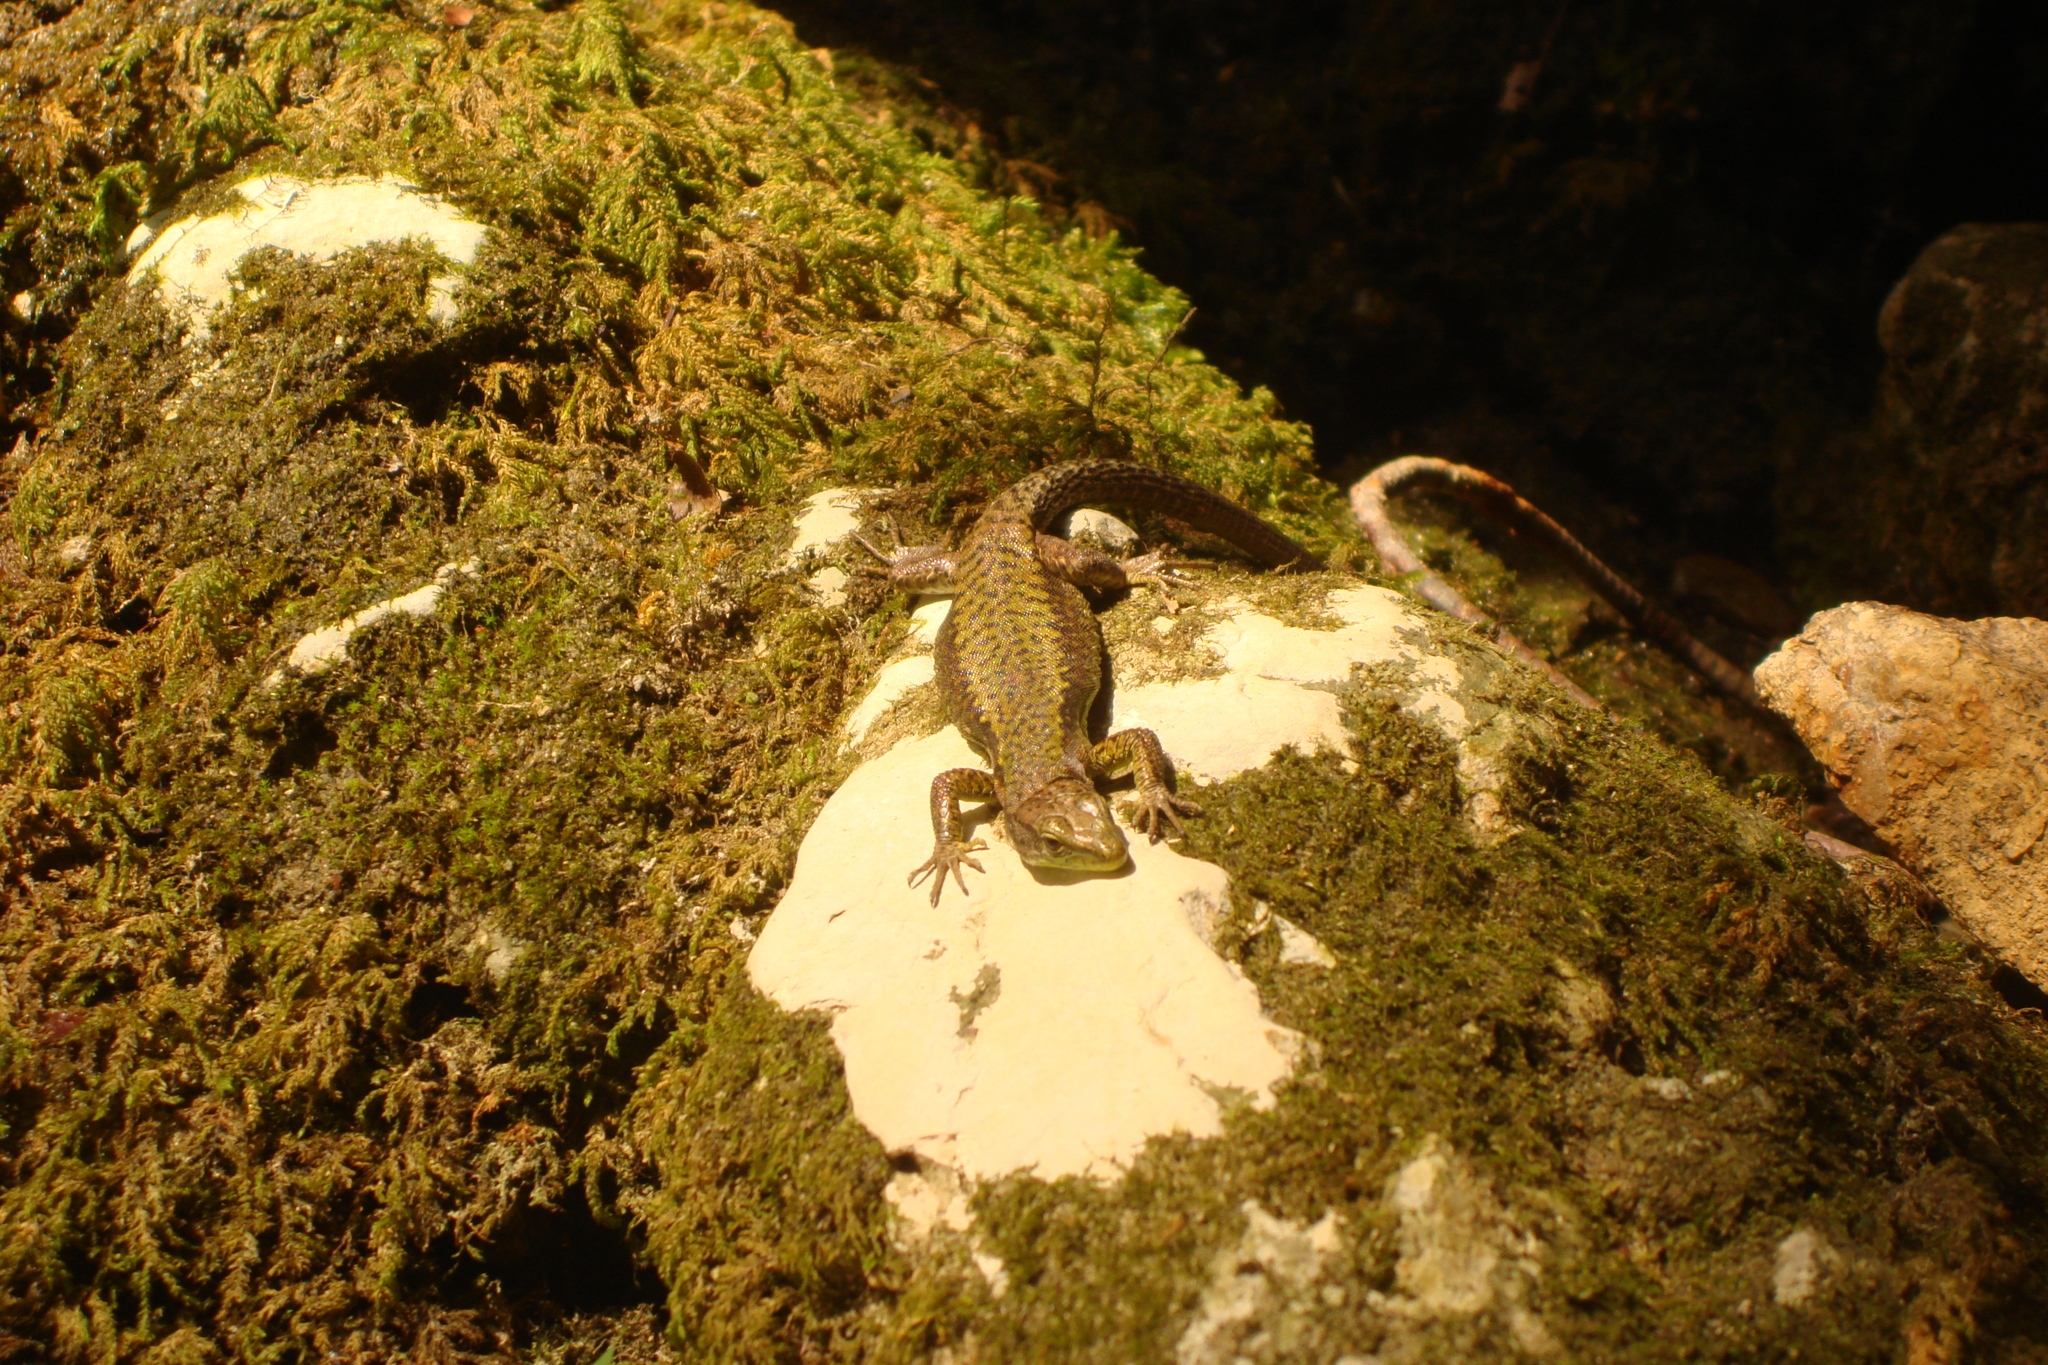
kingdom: Animalia
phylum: Chordata
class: Squamata
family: Lacertidae
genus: Darevskia
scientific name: Darevskia brauneri
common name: Brauner's rock lizard
